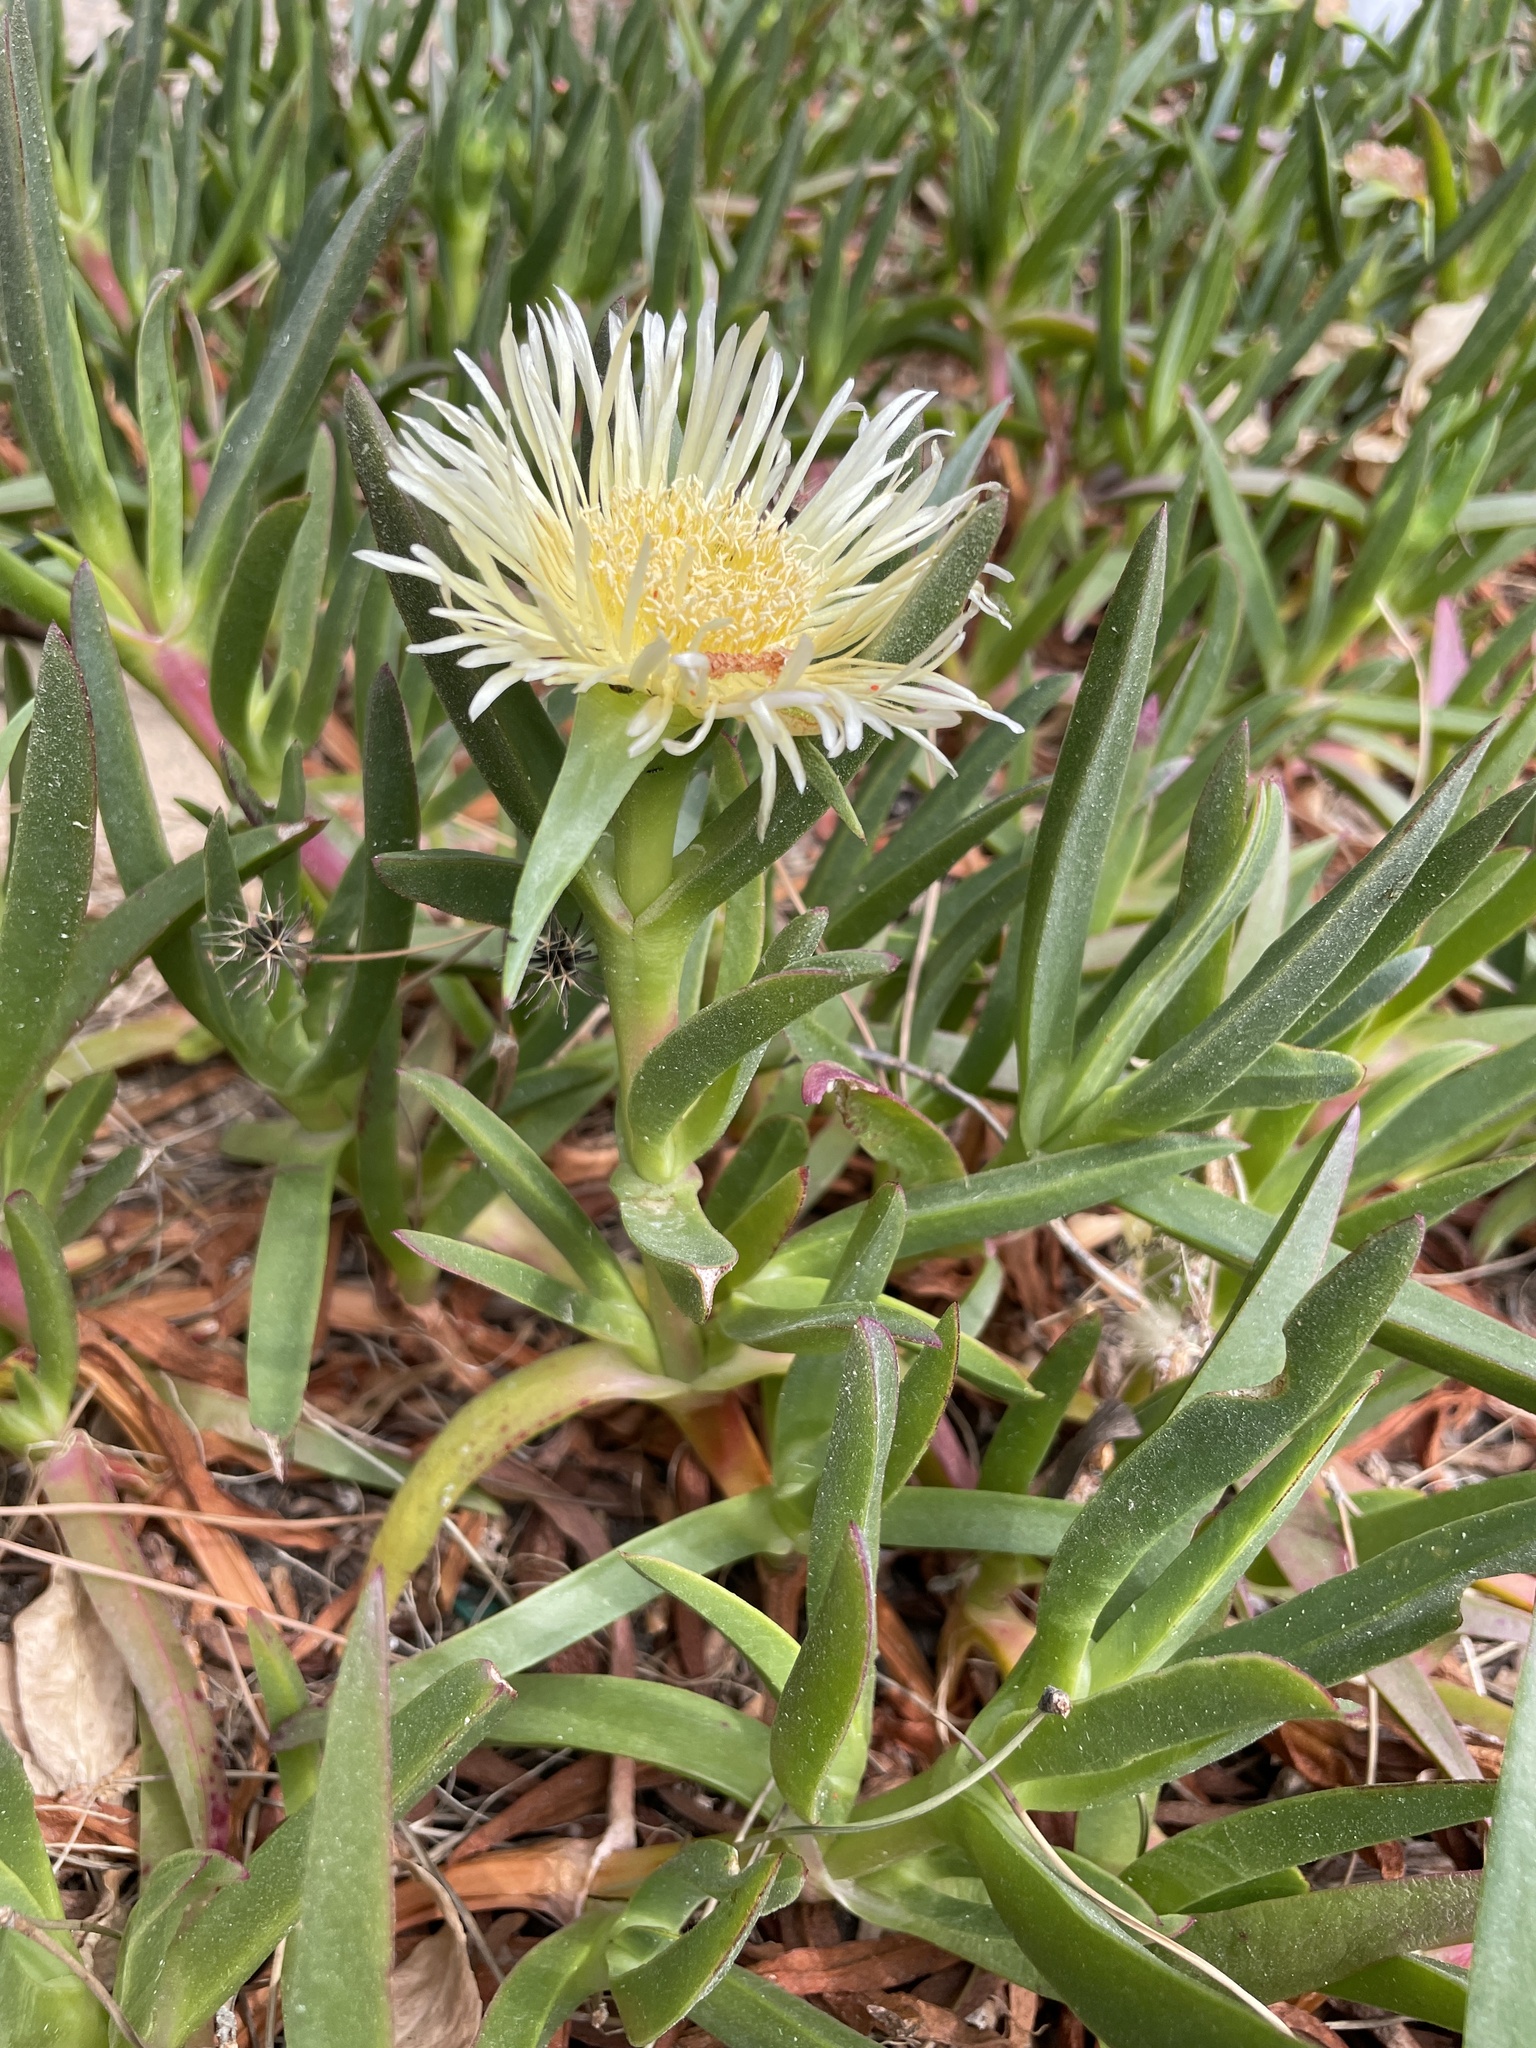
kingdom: Plantae
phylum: Tracheophyta
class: Magnoliopsida
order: Caryophyllales
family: Aizoaceae
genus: Carpobrotus
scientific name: Carpobrotus edulis
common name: Hottentot-fig
